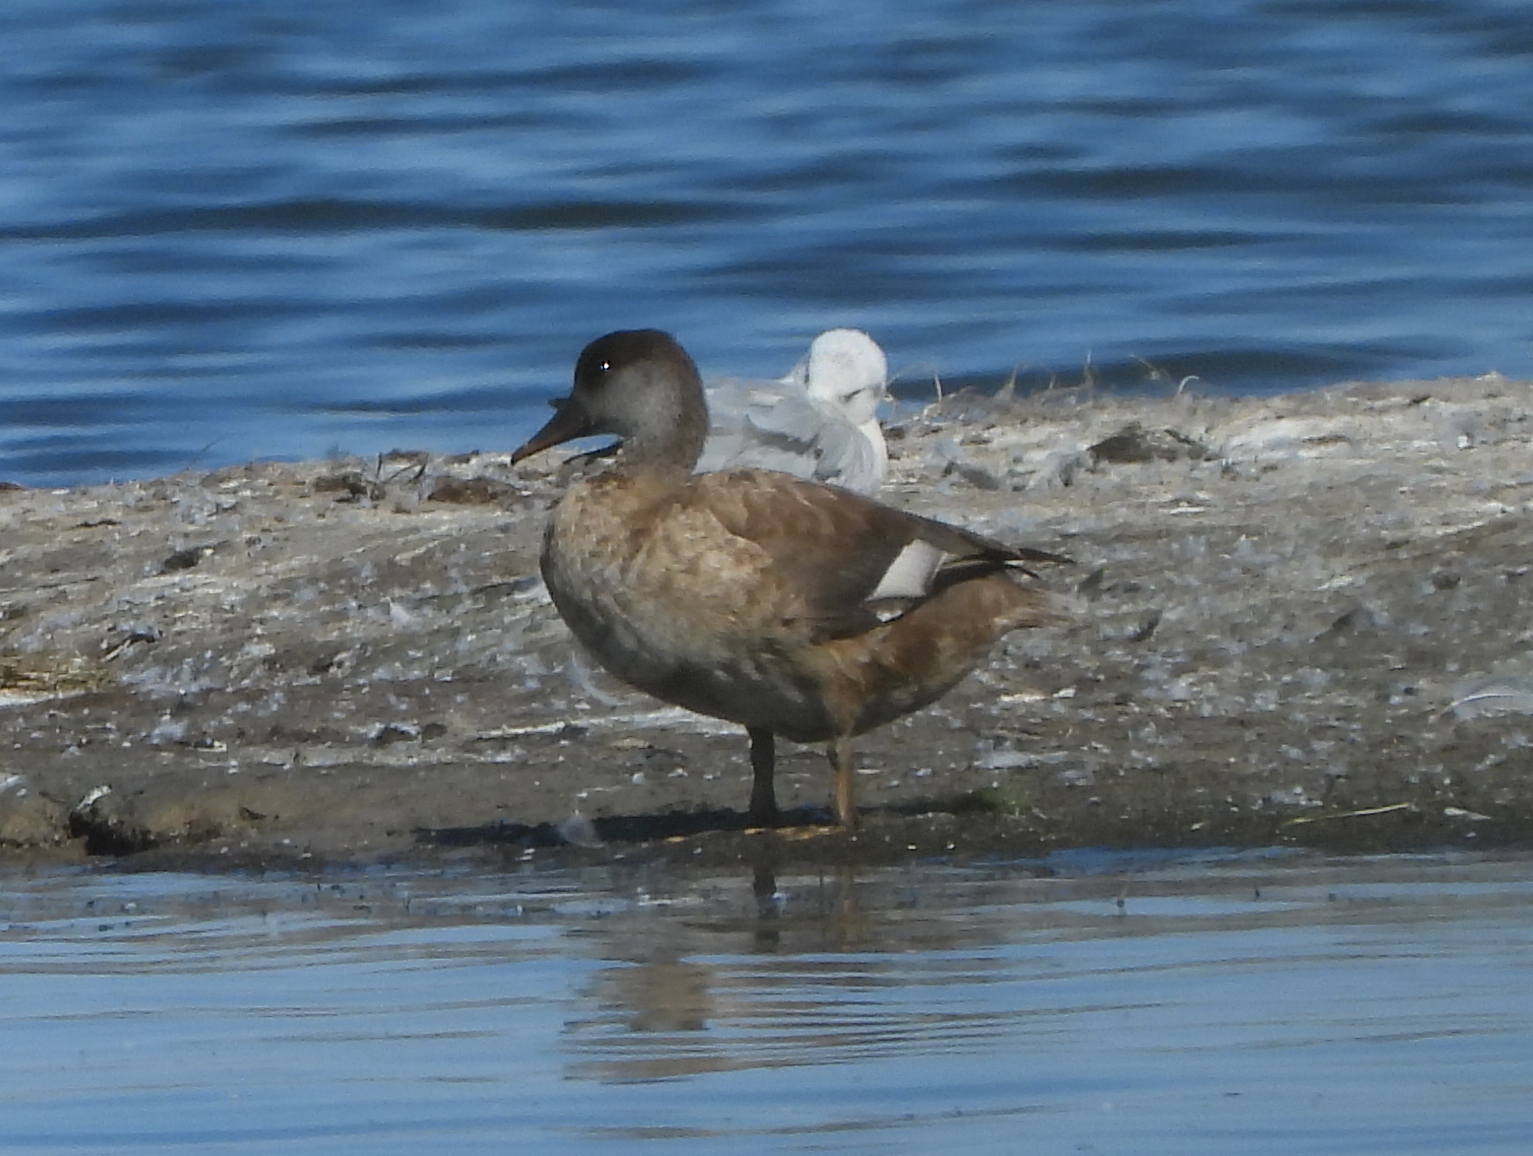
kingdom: Animalia
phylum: Chordata
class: Aves
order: Anseriformes
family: Anatidae
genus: Netta
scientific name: Netta rufina
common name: Red-crested pochard
